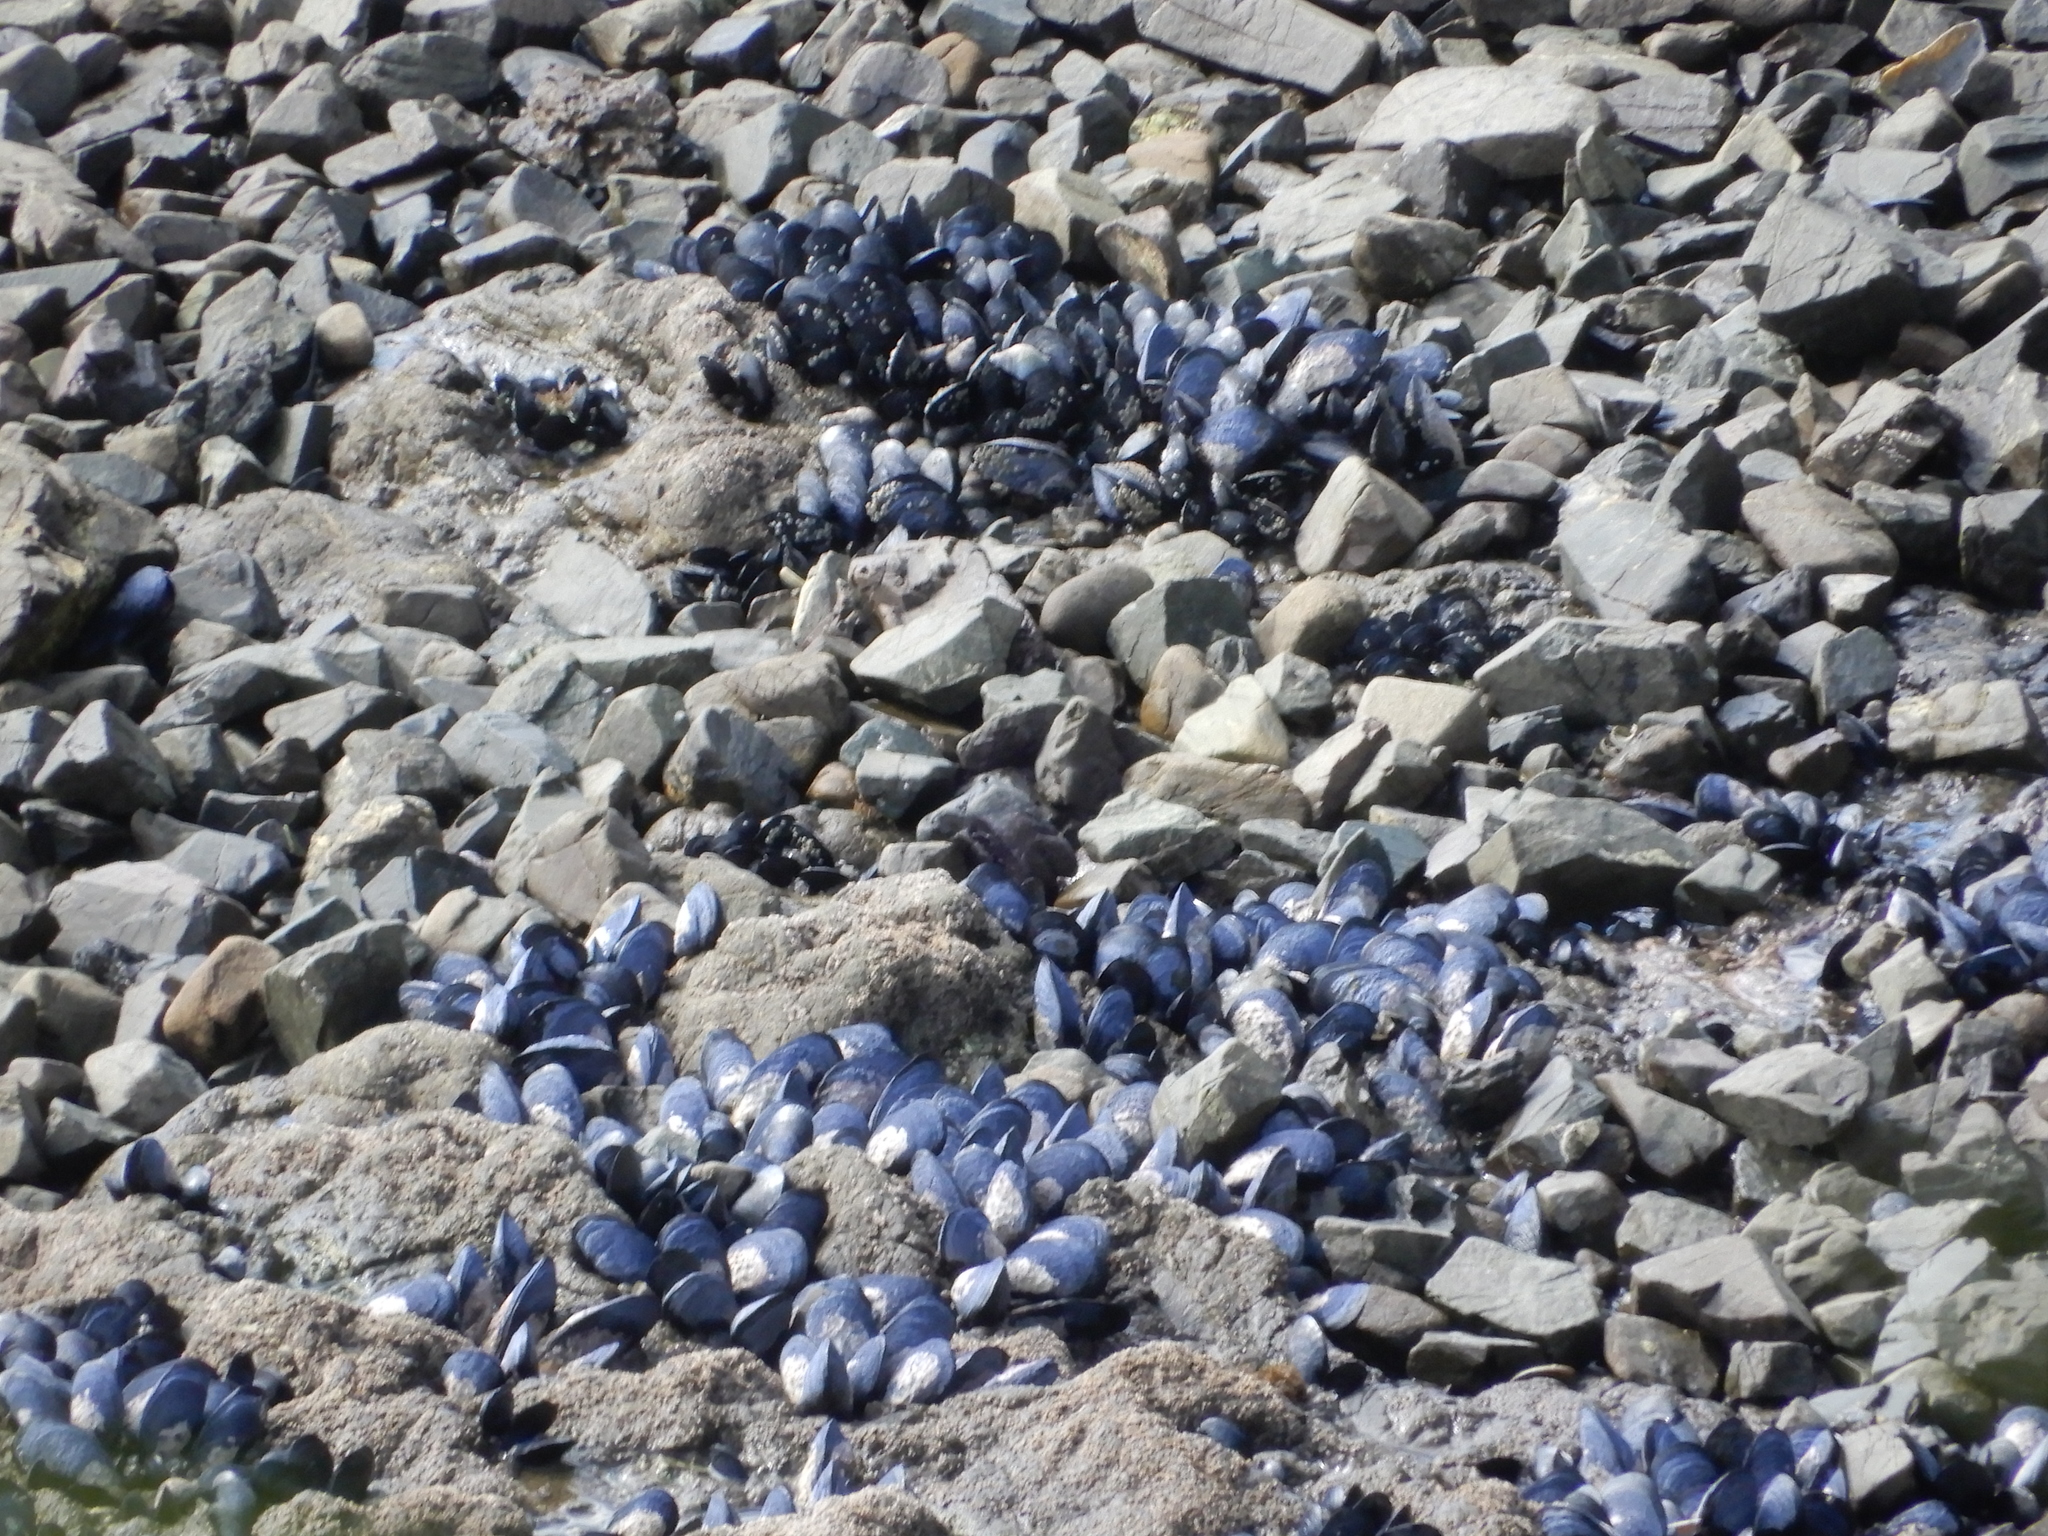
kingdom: Animalia
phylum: Mollusca
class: Bivalvia
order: Mytilida
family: Mytilidae
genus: Mytilus
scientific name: Mytilus planulatus
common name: Australian mussel
